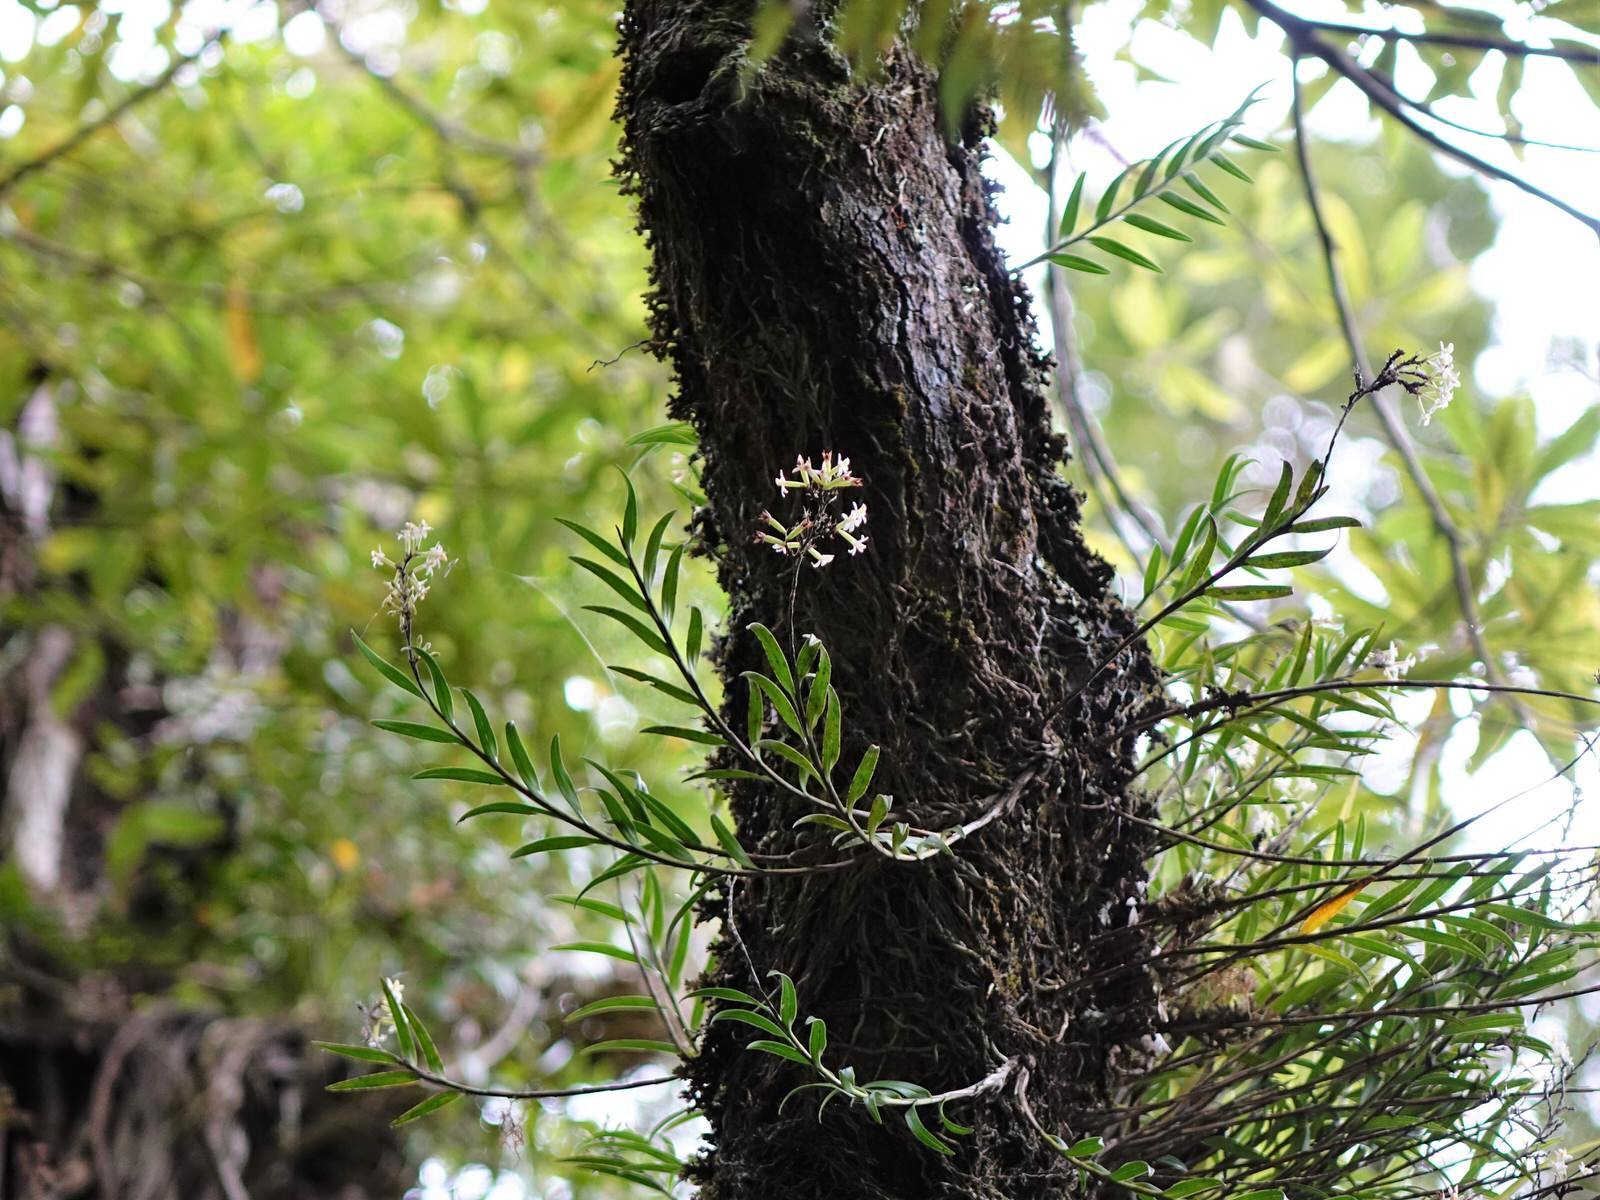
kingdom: Plantae
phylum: Tracheophyta
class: Liliopsida
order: Asparagales
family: Orchidaceae
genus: Earina
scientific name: Earina autumnalis
